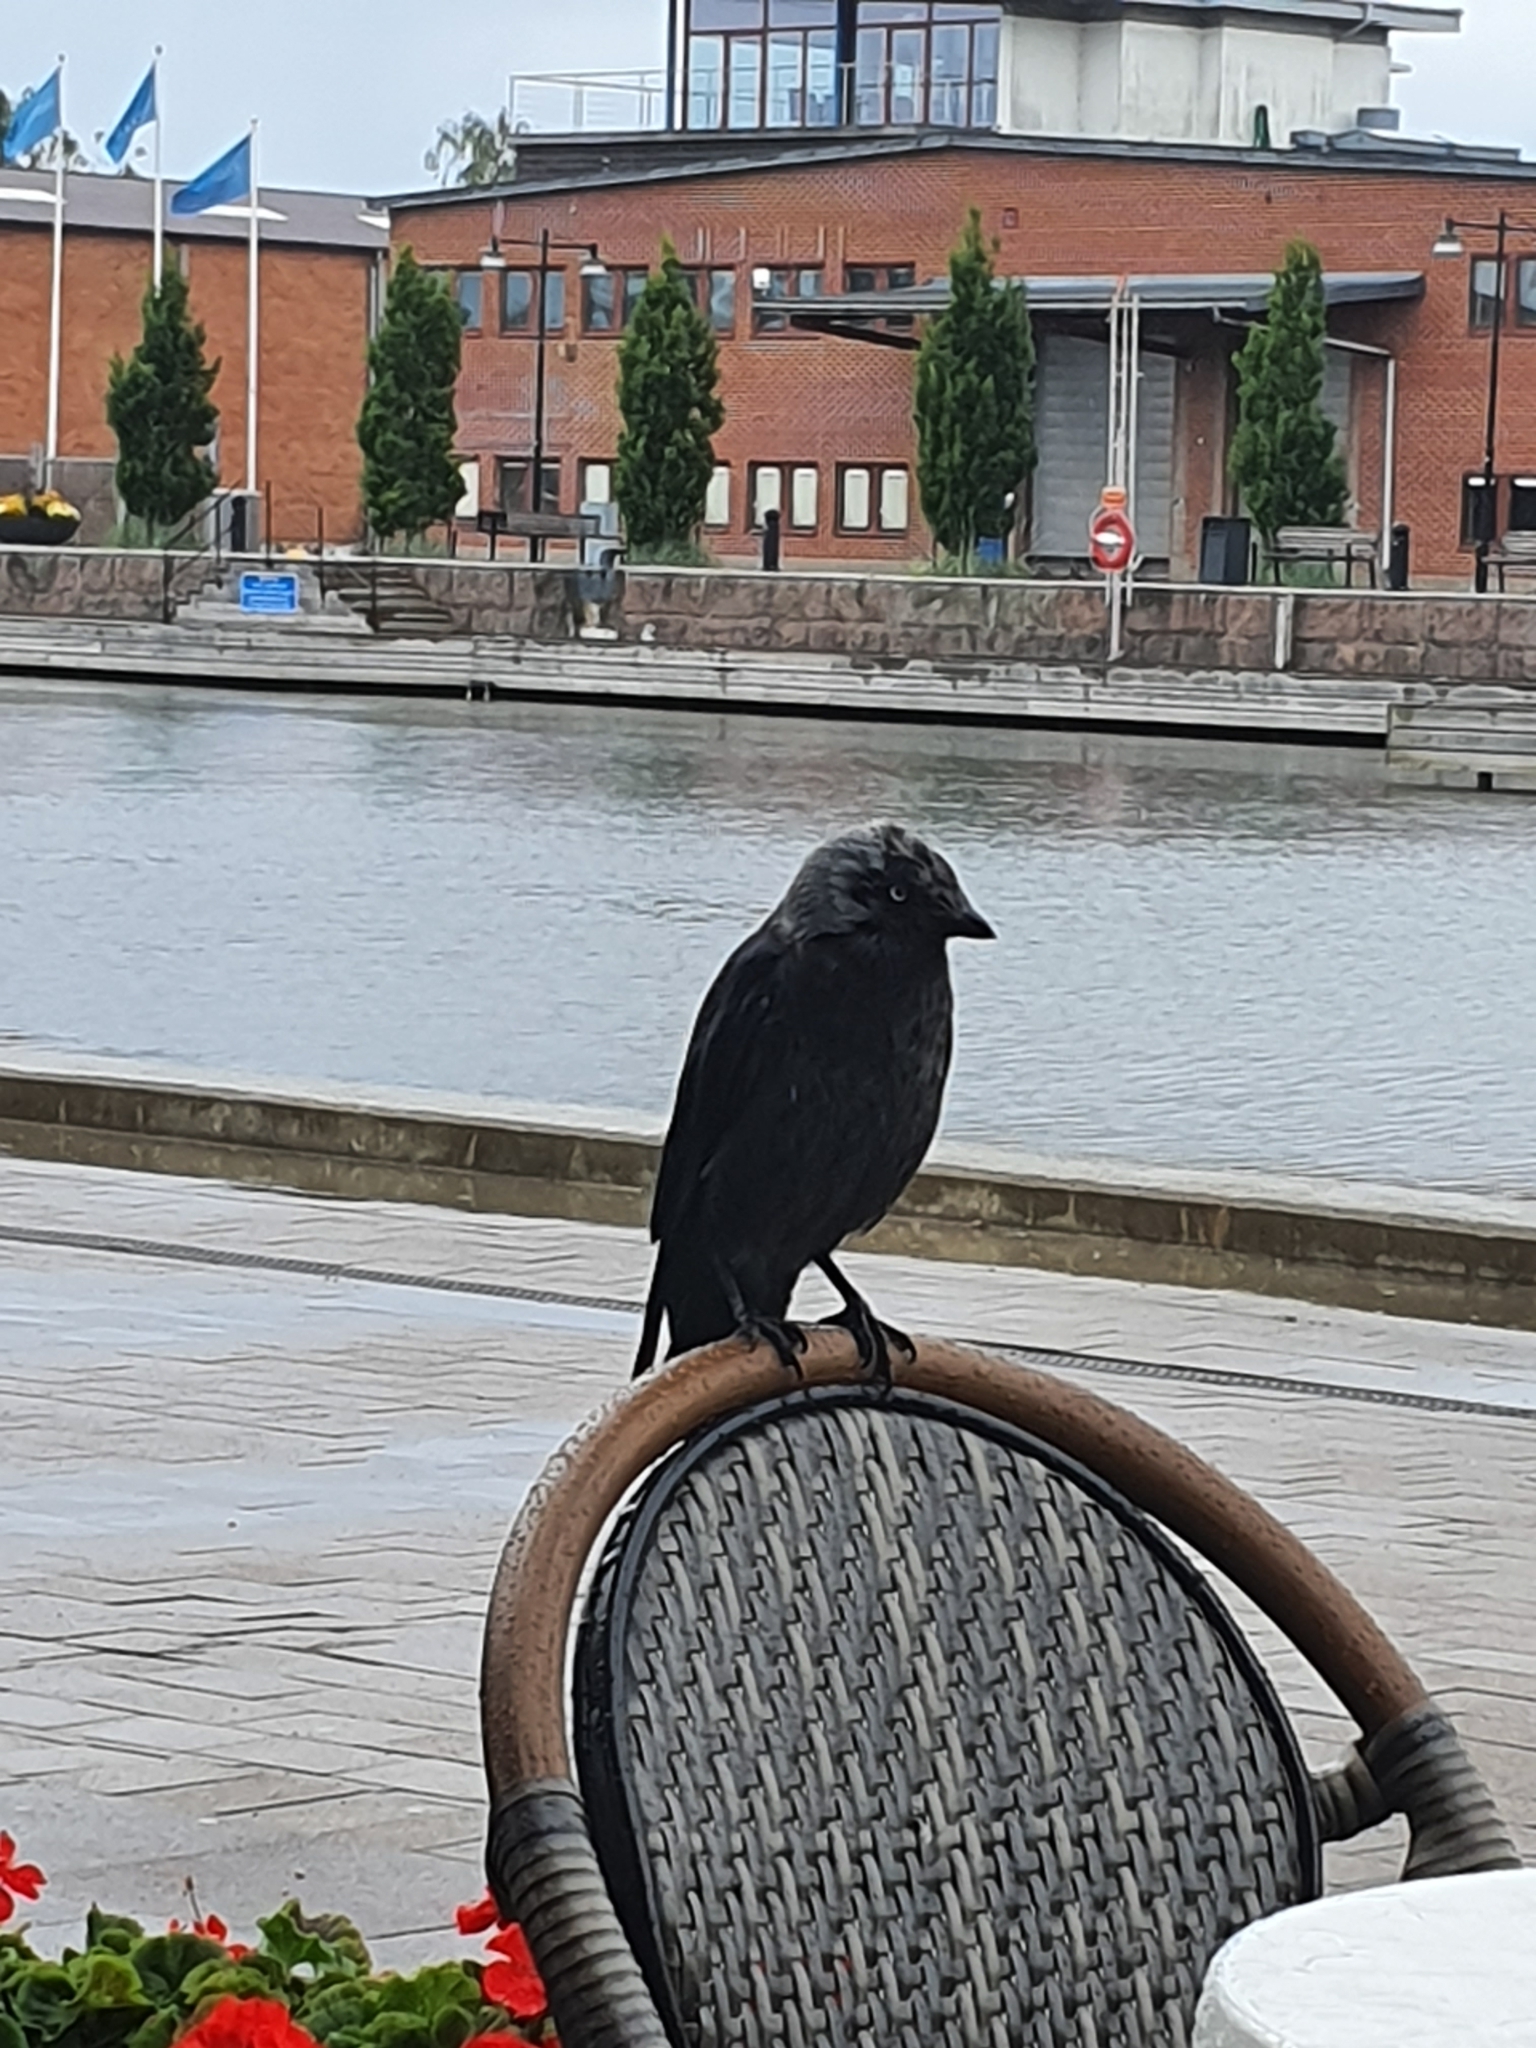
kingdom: Animalia
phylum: Chordata
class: Aves
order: Passeriformes
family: Corvidae
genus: Coloeus
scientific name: Coloeus monedula
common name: Western jackdaw
